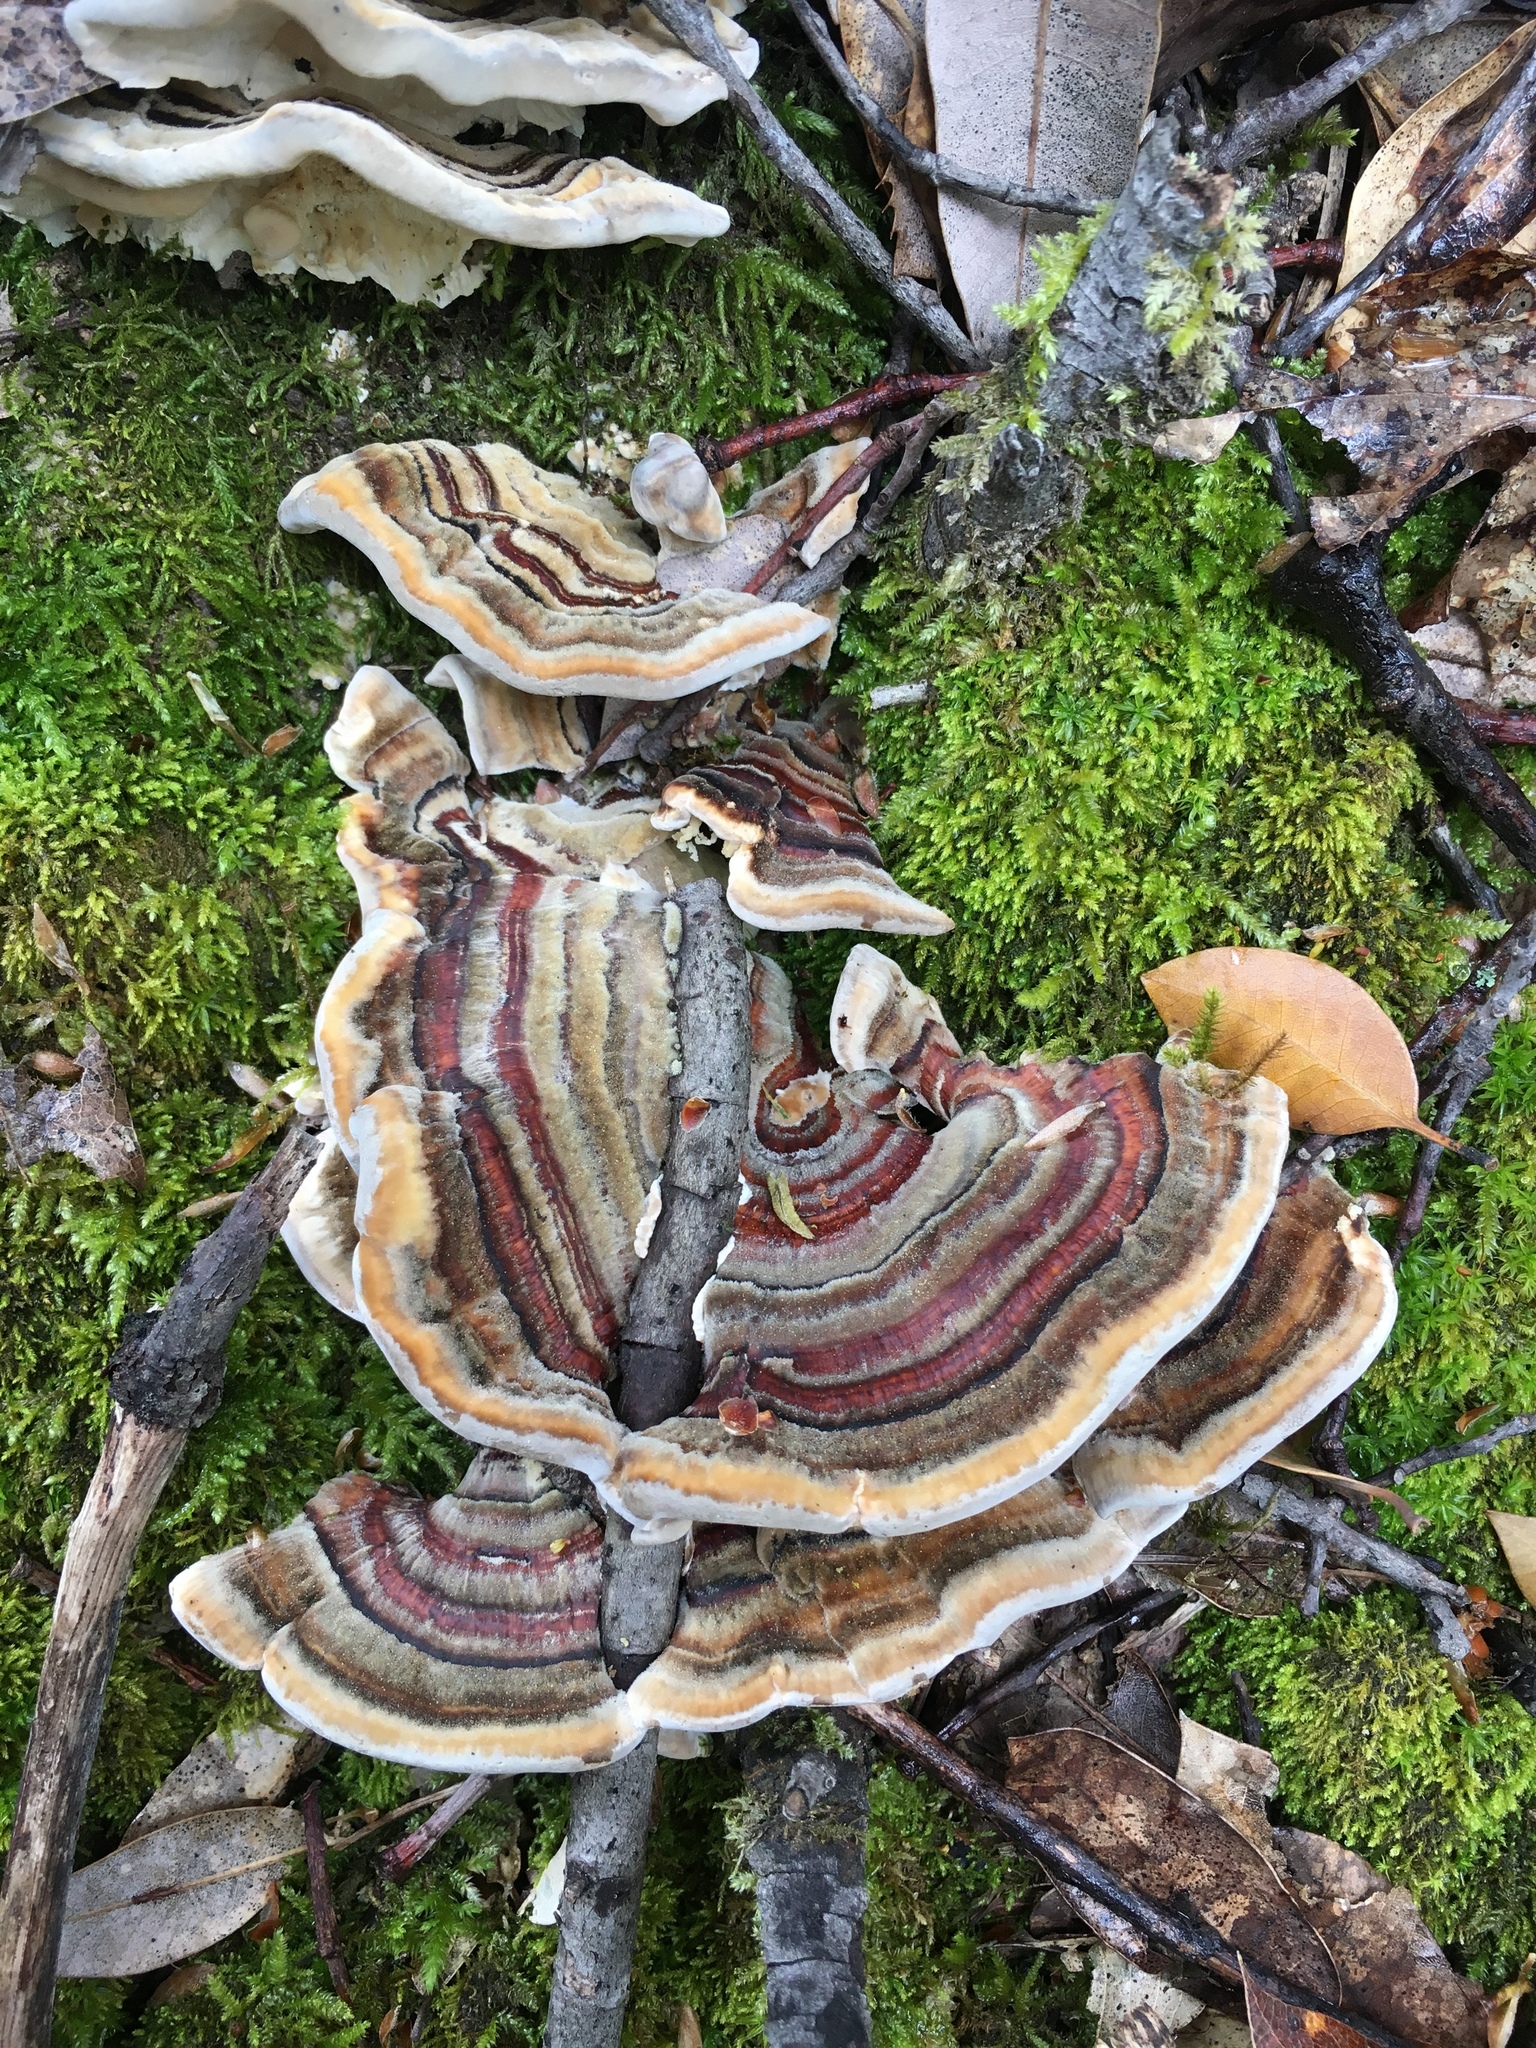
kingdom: Fungi
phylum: Basidiomycota
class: Agaricomycetes
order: Polyporales
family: Polyporaceae
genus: Trametes
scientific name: Trametes versicolor
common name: Turkeytail
